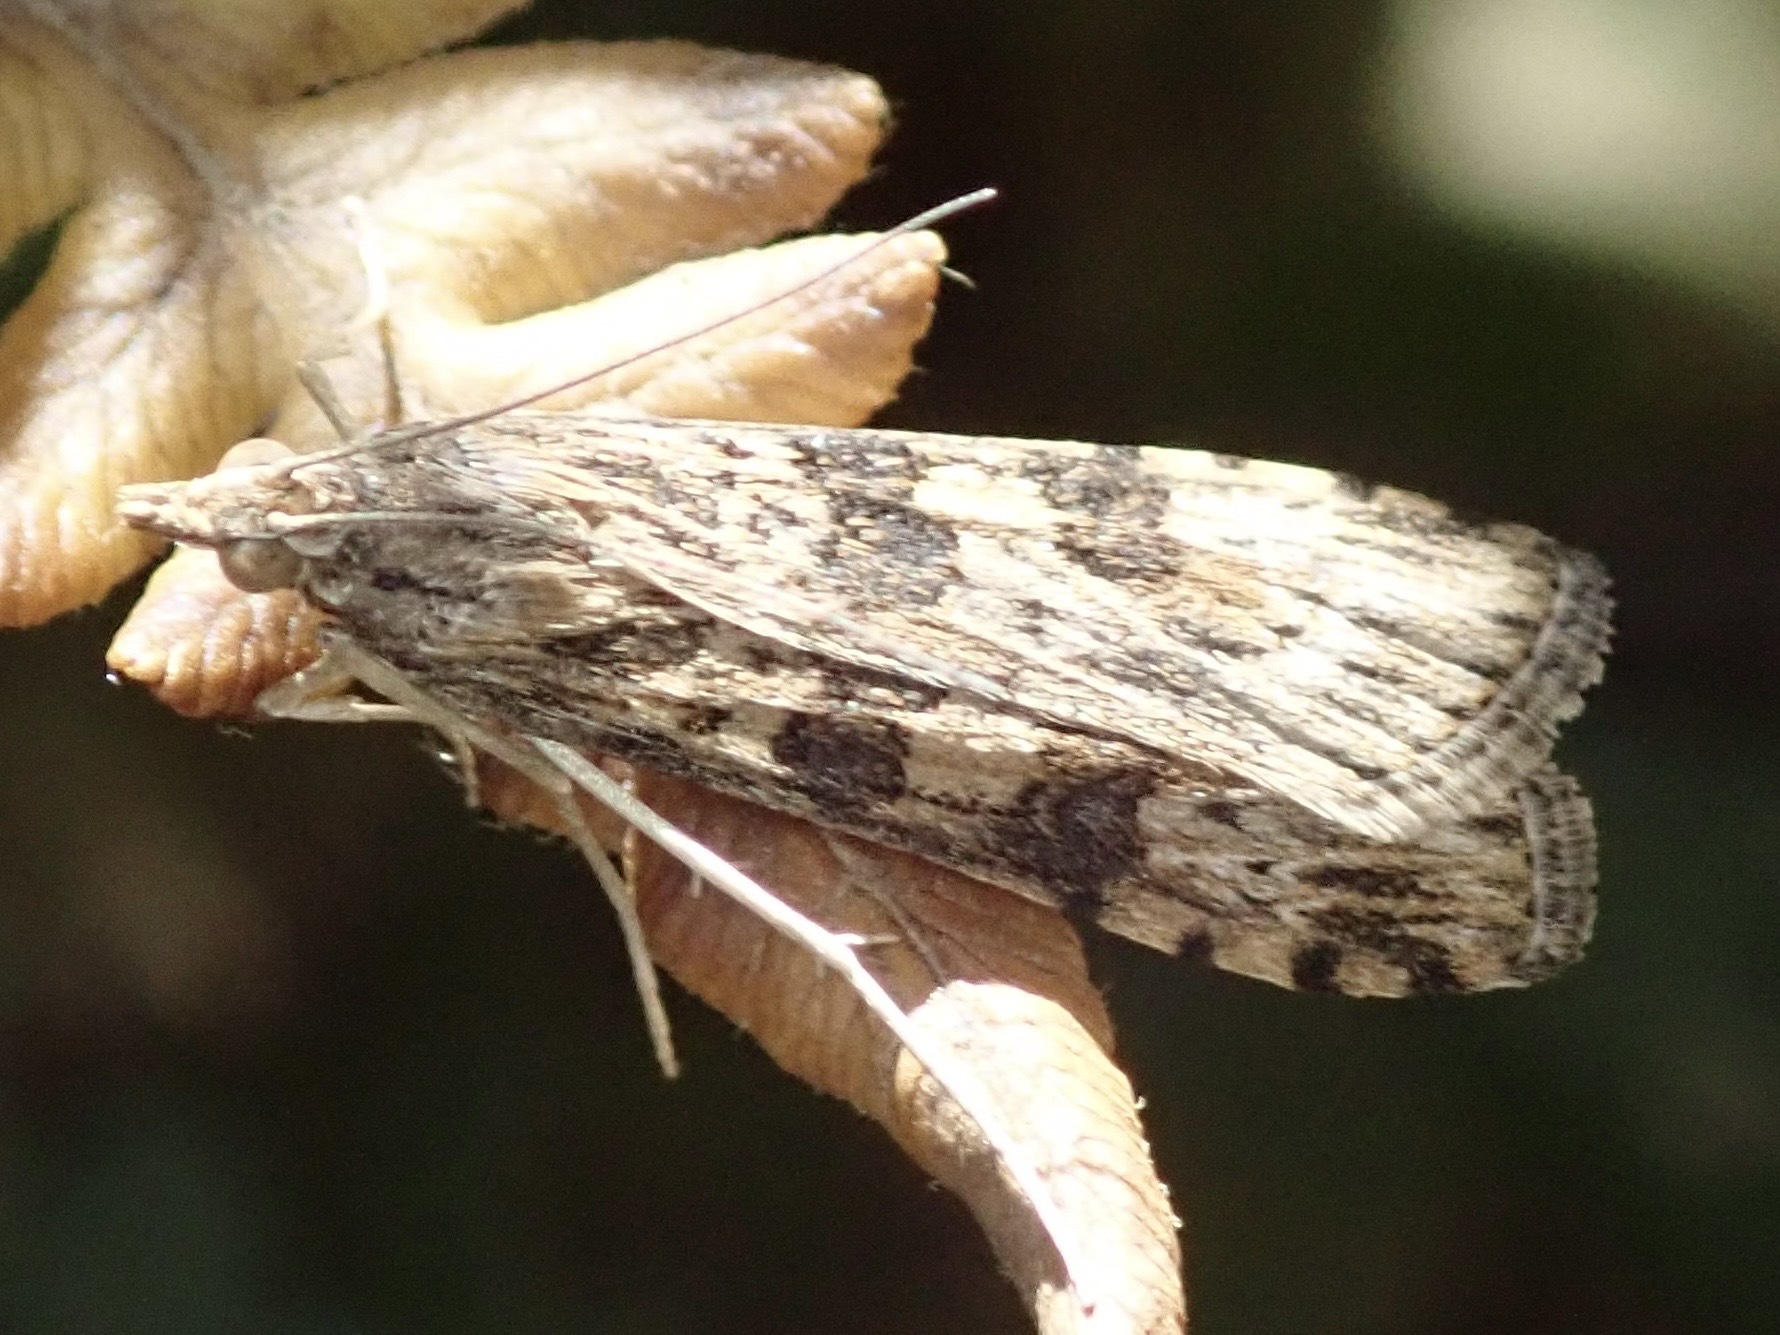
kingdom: Animalia
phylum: Arthropoda
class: Insecta
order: Lepidoptera
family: Crambidae
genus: Nomophila
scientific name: Nomophila nearctica
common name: American rush veneer
